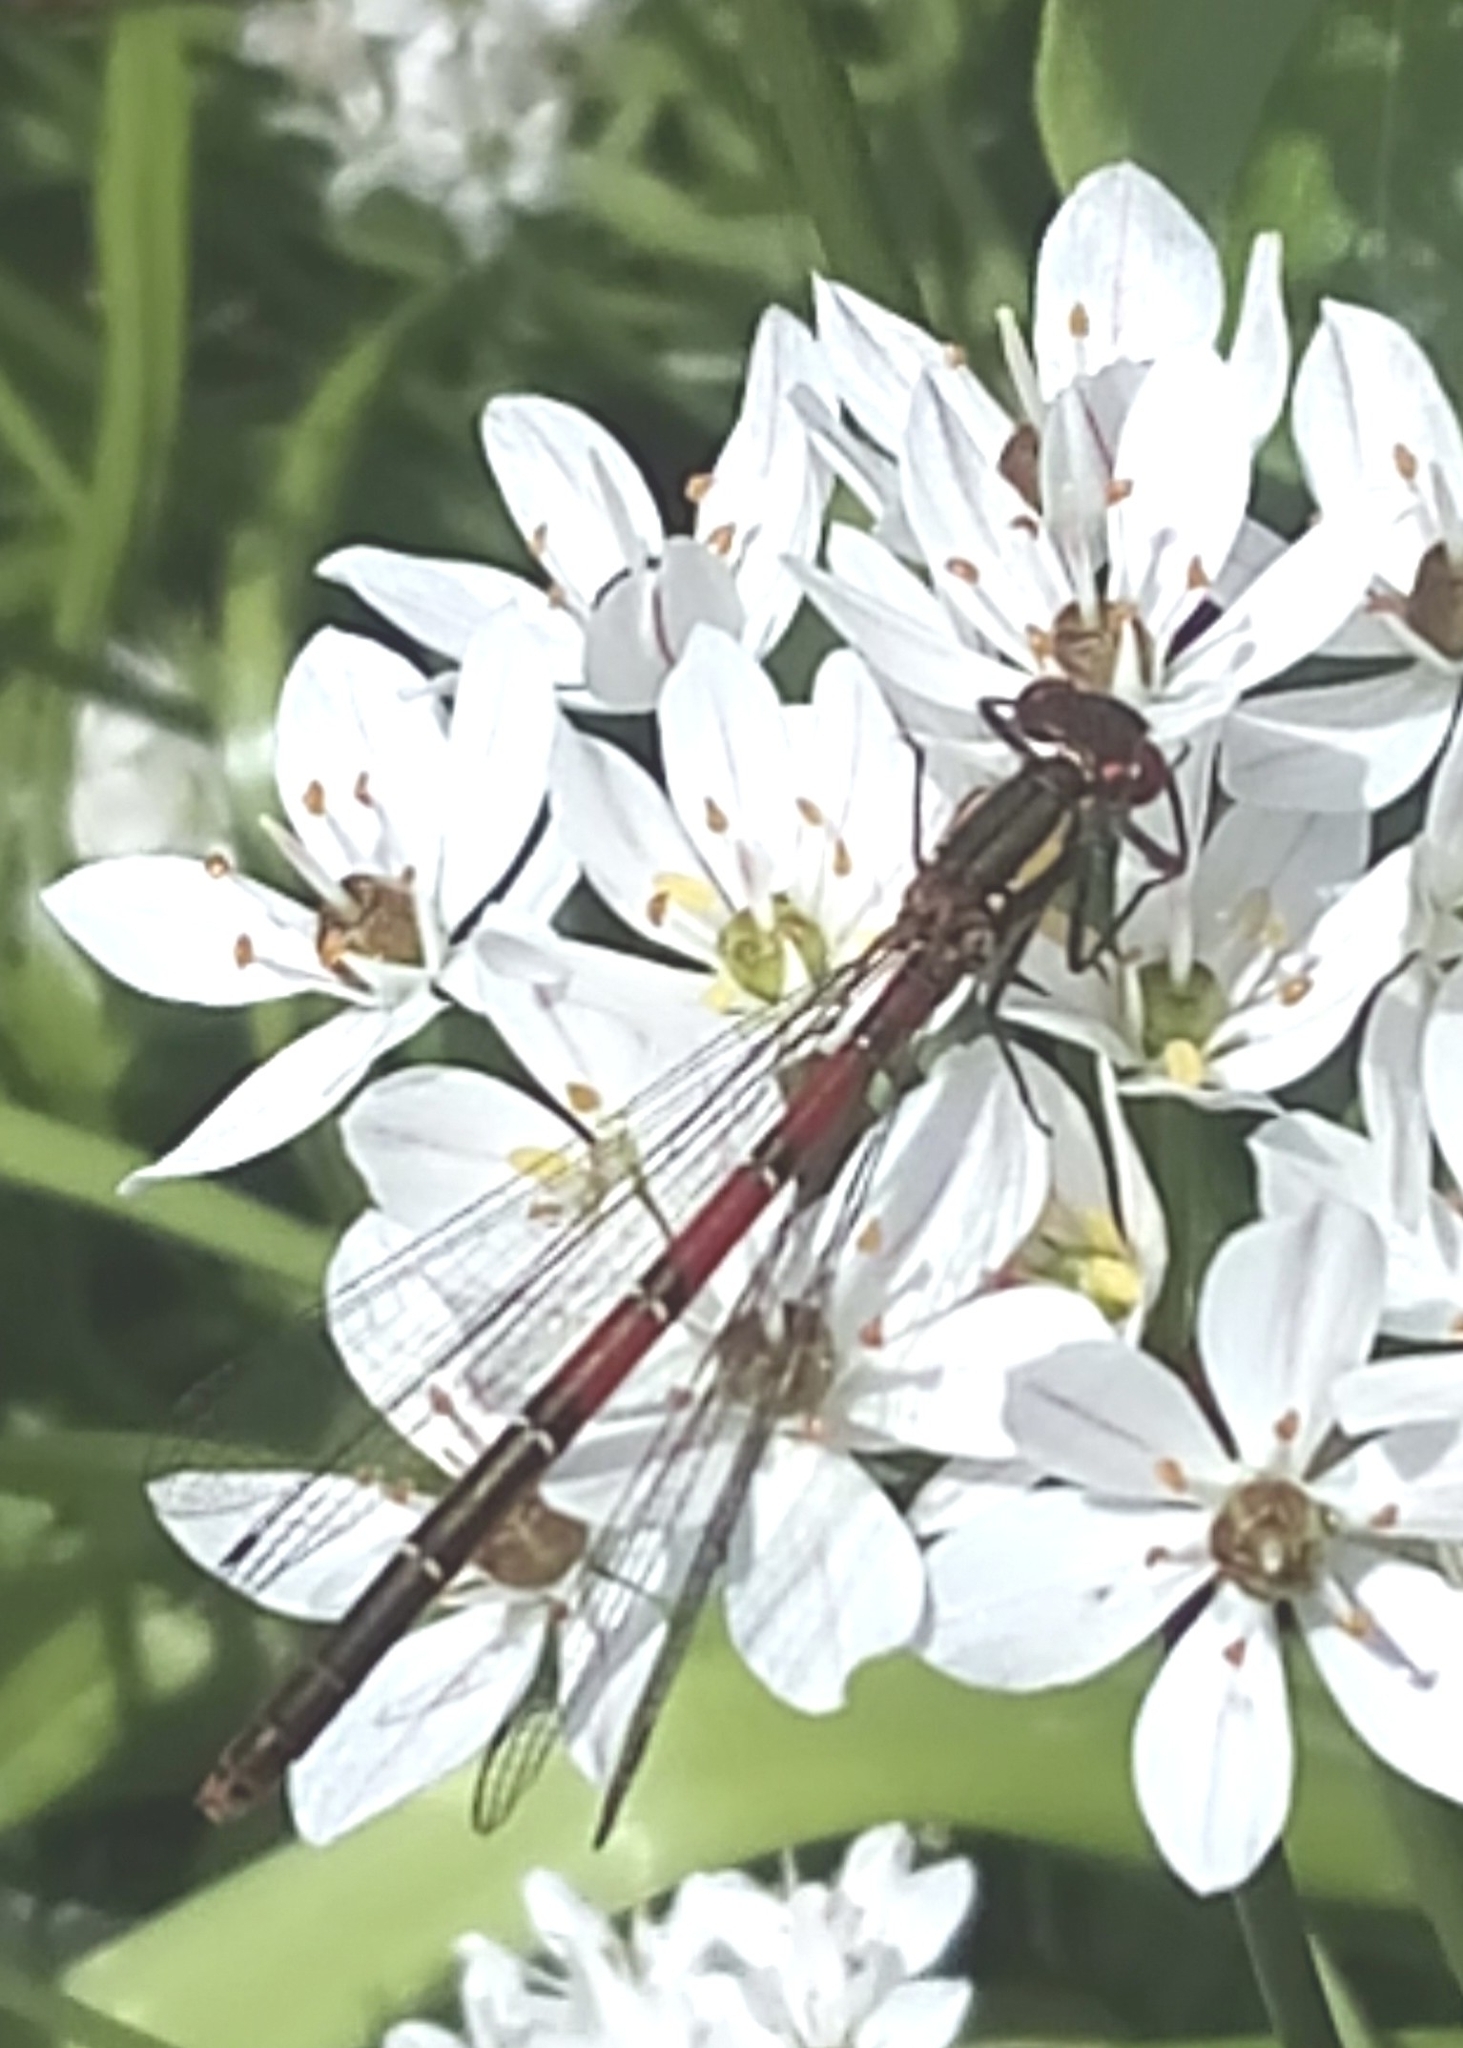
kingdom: Animalia
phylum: Arthropoda
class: Insecta
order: Odonata
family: Coenagrionidae
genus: Pyrrhosoma
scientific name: Pyrrhosoma nymphula
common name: Large red damsel
